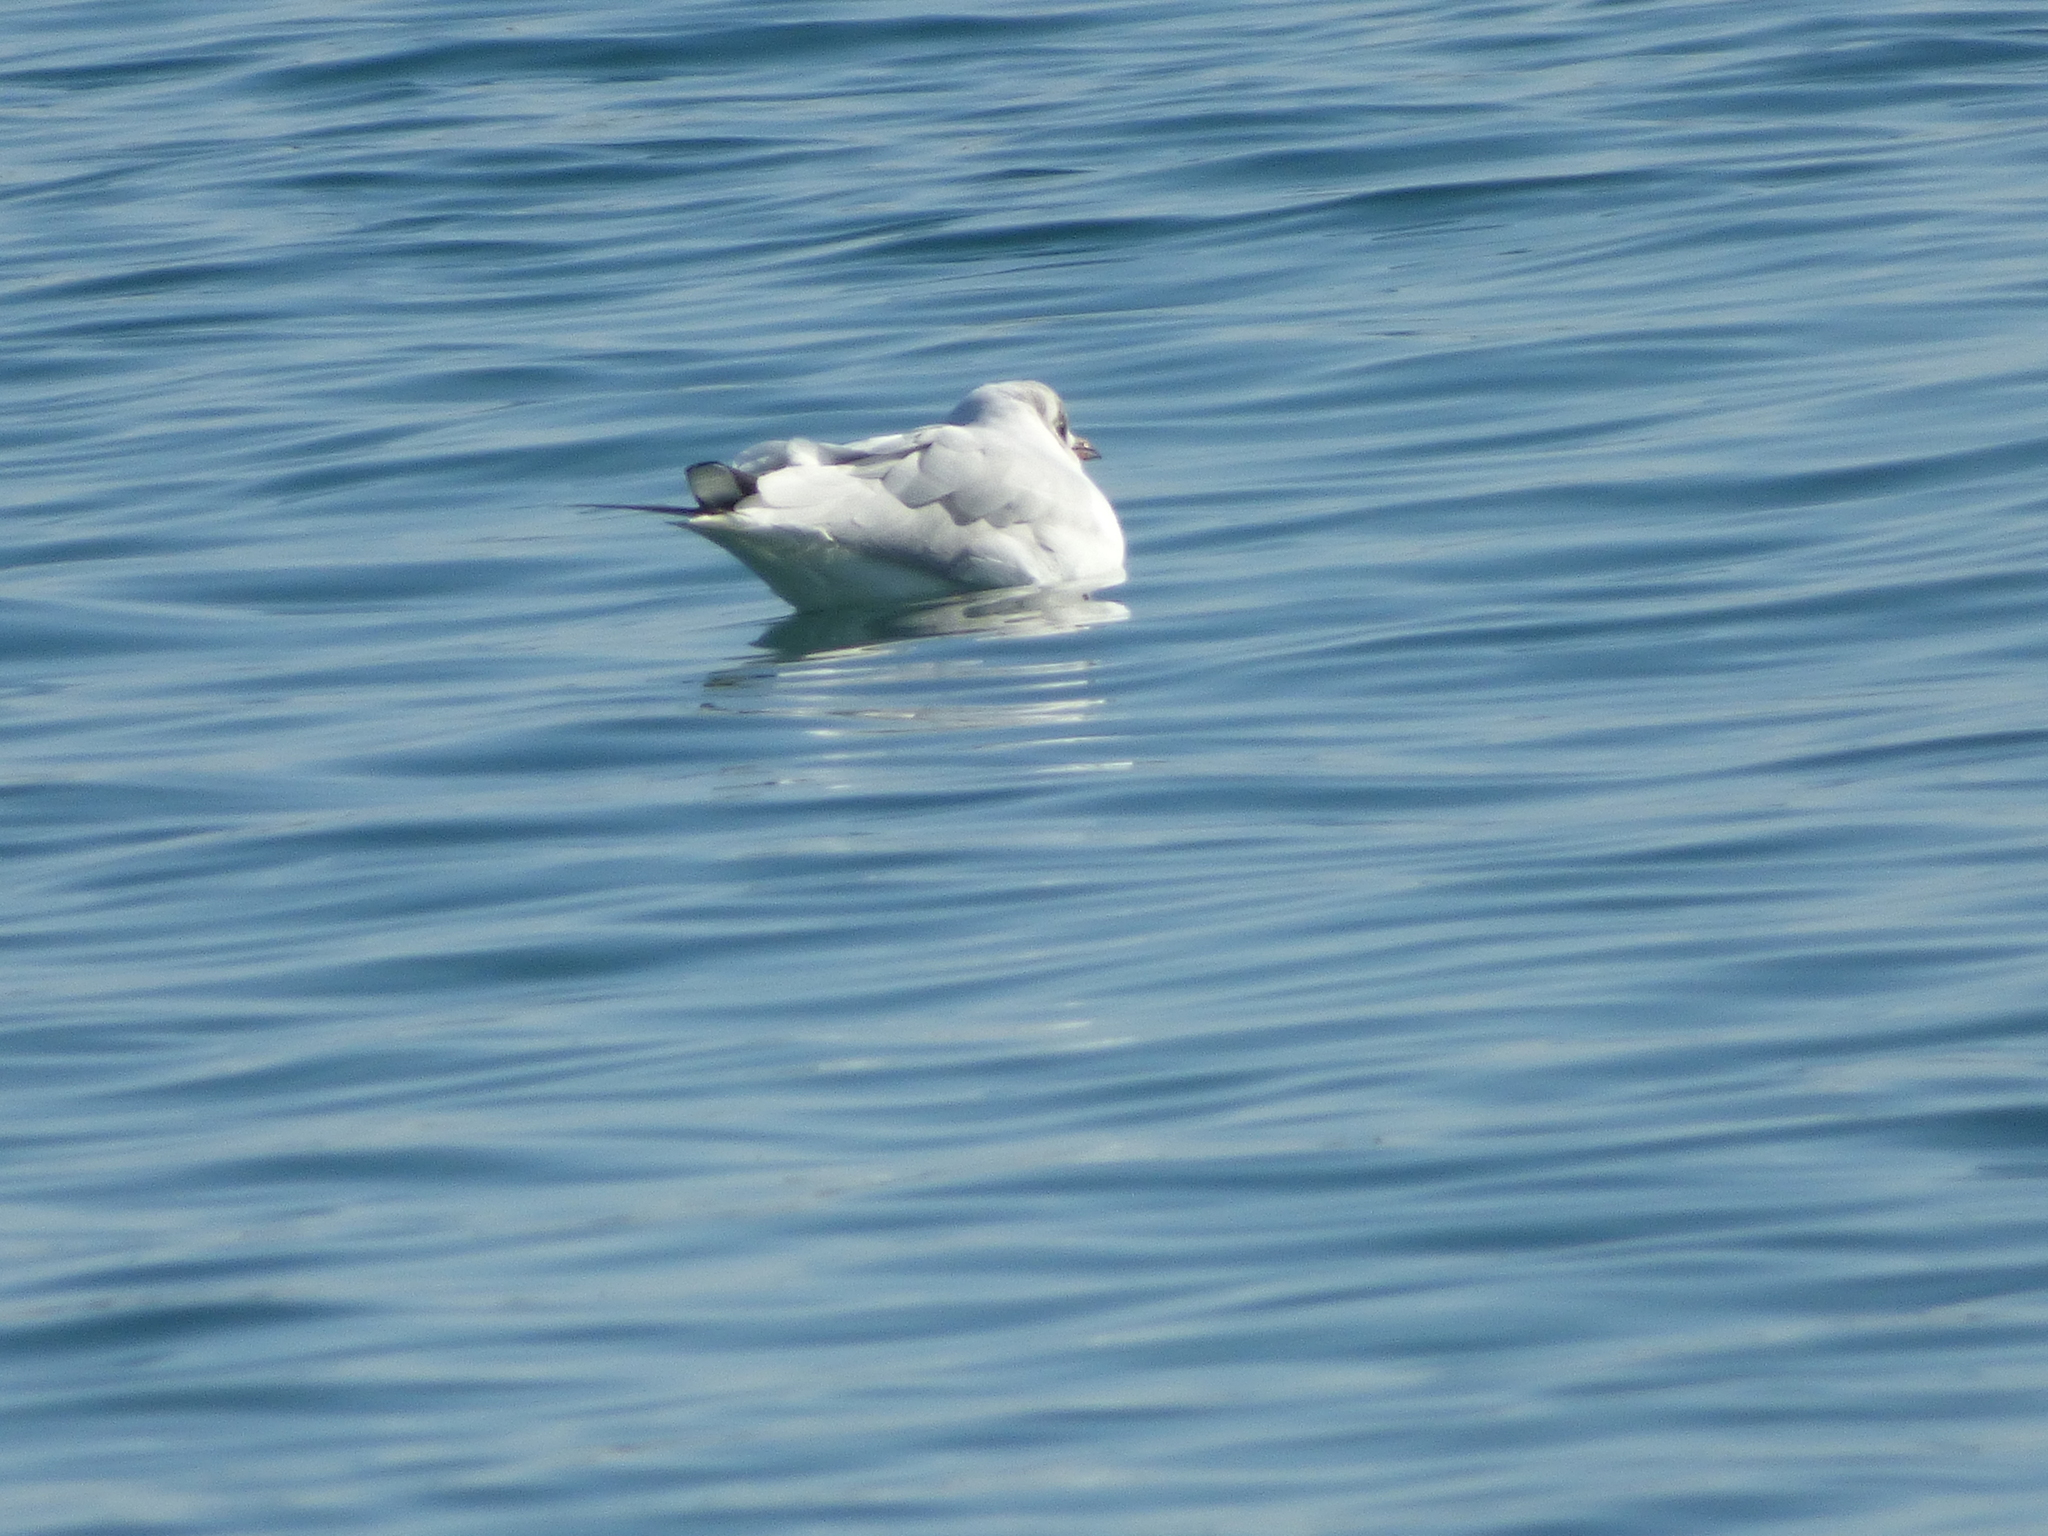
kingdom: Animalia
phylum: Chordata
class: Aves
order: Charadriiformes
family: Laridae
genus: Chroicocephalus
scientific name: Chroicocephalus ridibundus
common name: Black-headed gull
